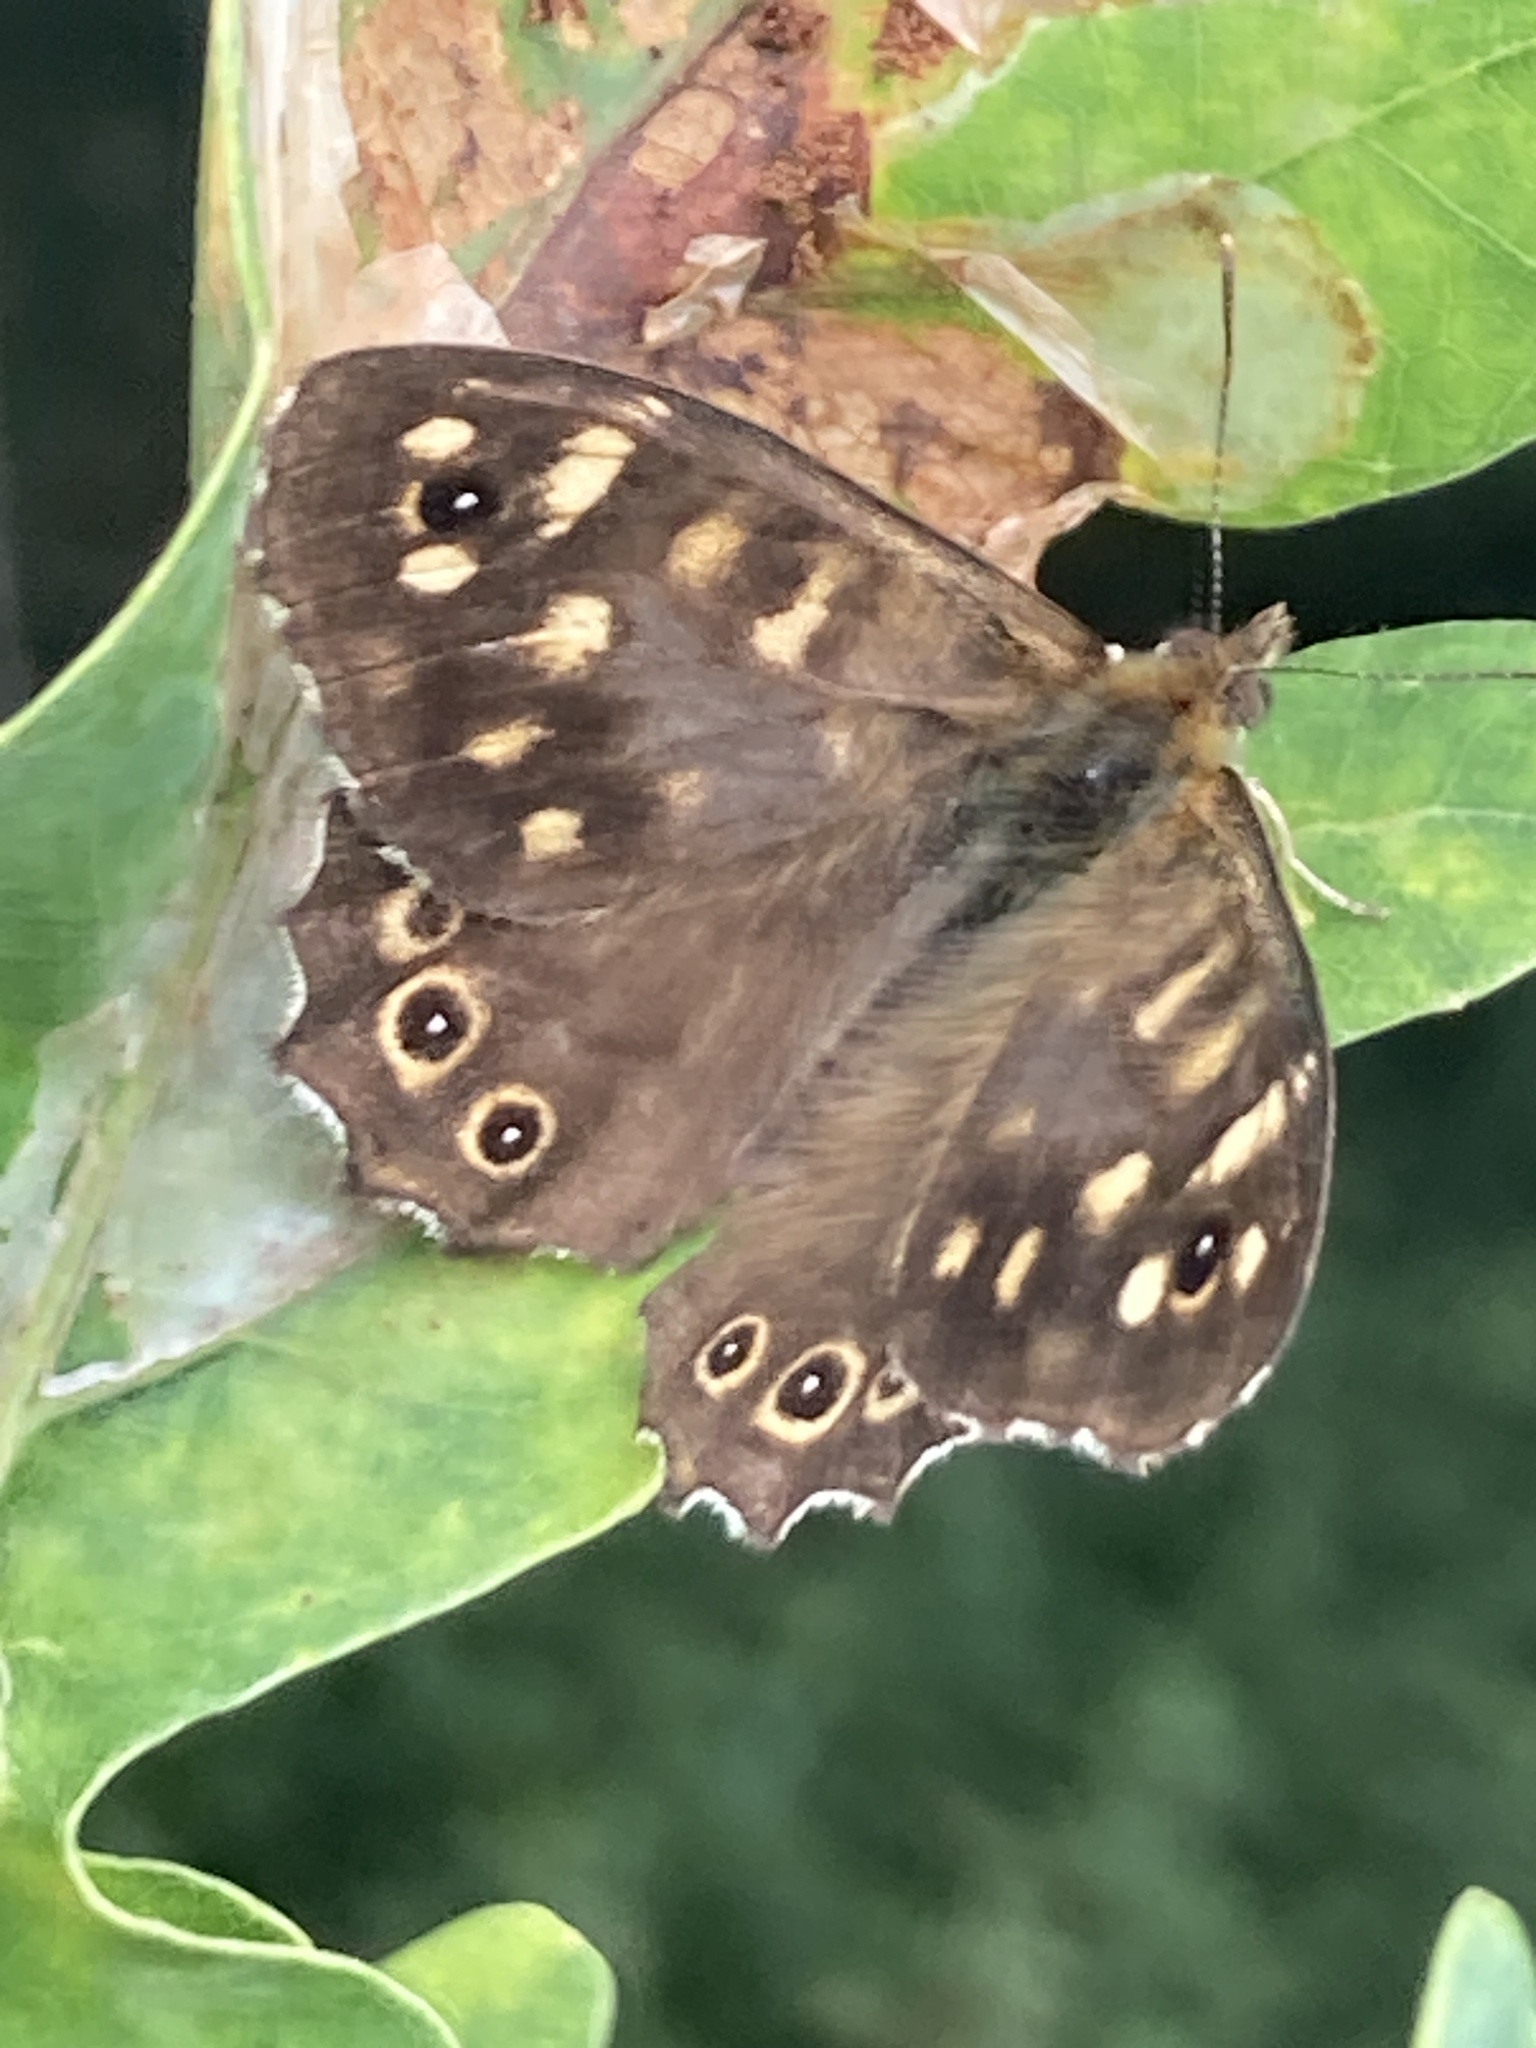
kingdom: Animalia
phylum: Arthropoda
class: Insecta
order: Lepidoptera
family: Nymphalidae
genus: Pararge
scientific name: Pararge aegeria
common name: Speckled wood
